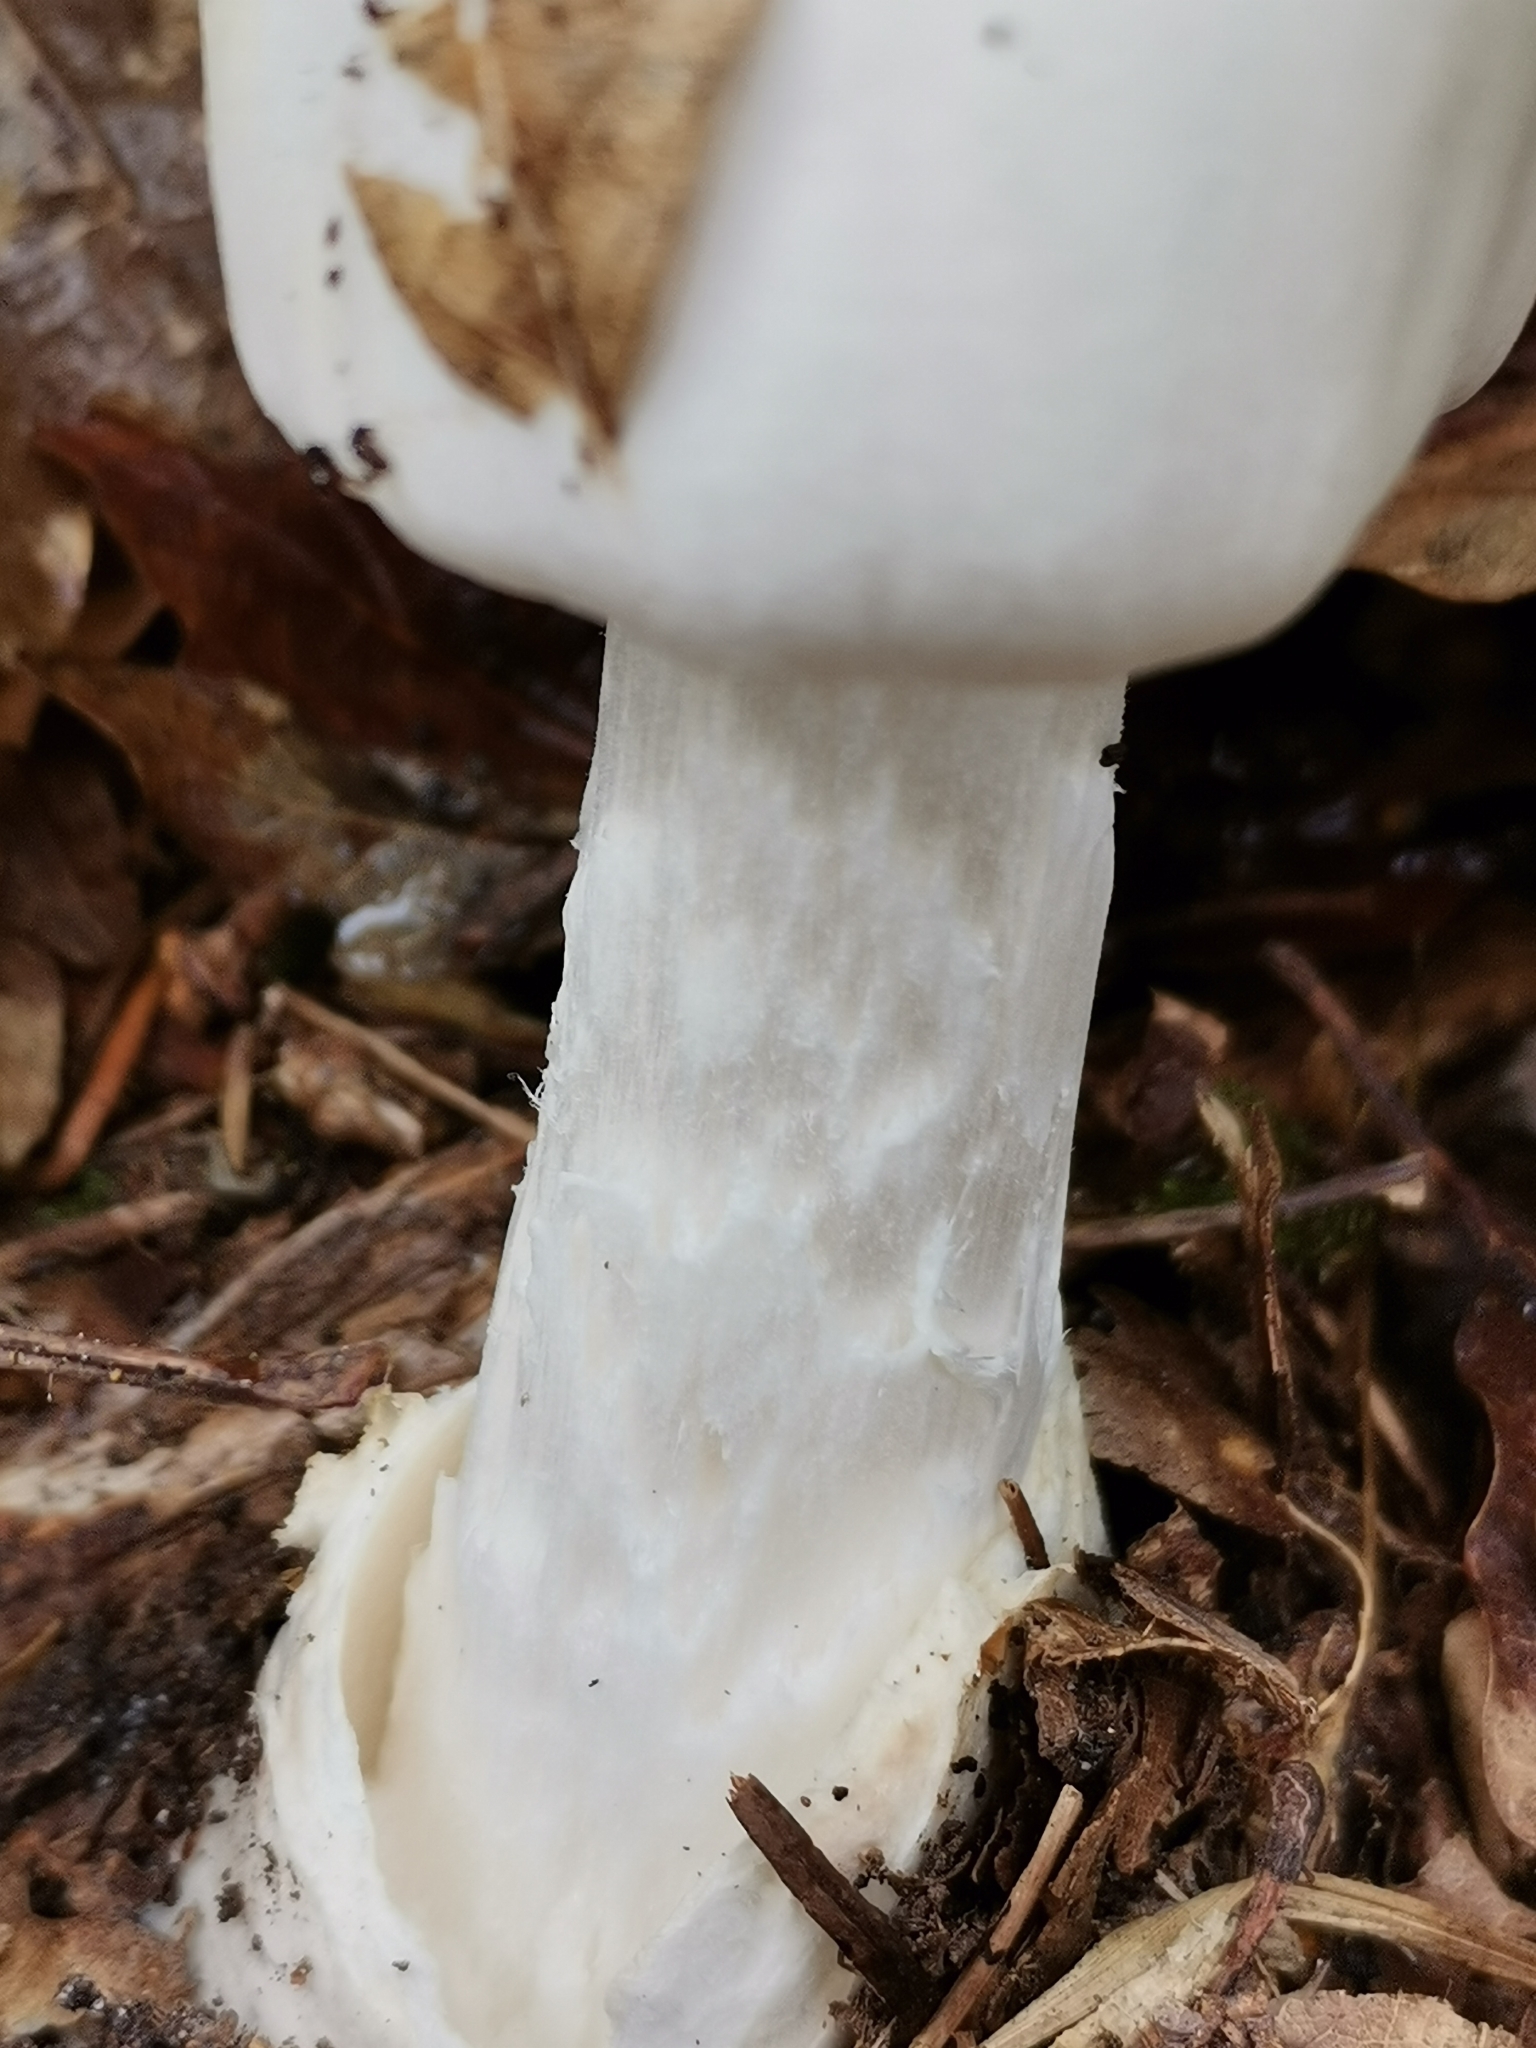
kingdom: Fungi
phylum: Basidiomycota
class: Agaricomycetes
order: Agaricales
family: Amanitaceae
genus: Amanita
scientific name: Amanita virosa
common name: Destroying angel
